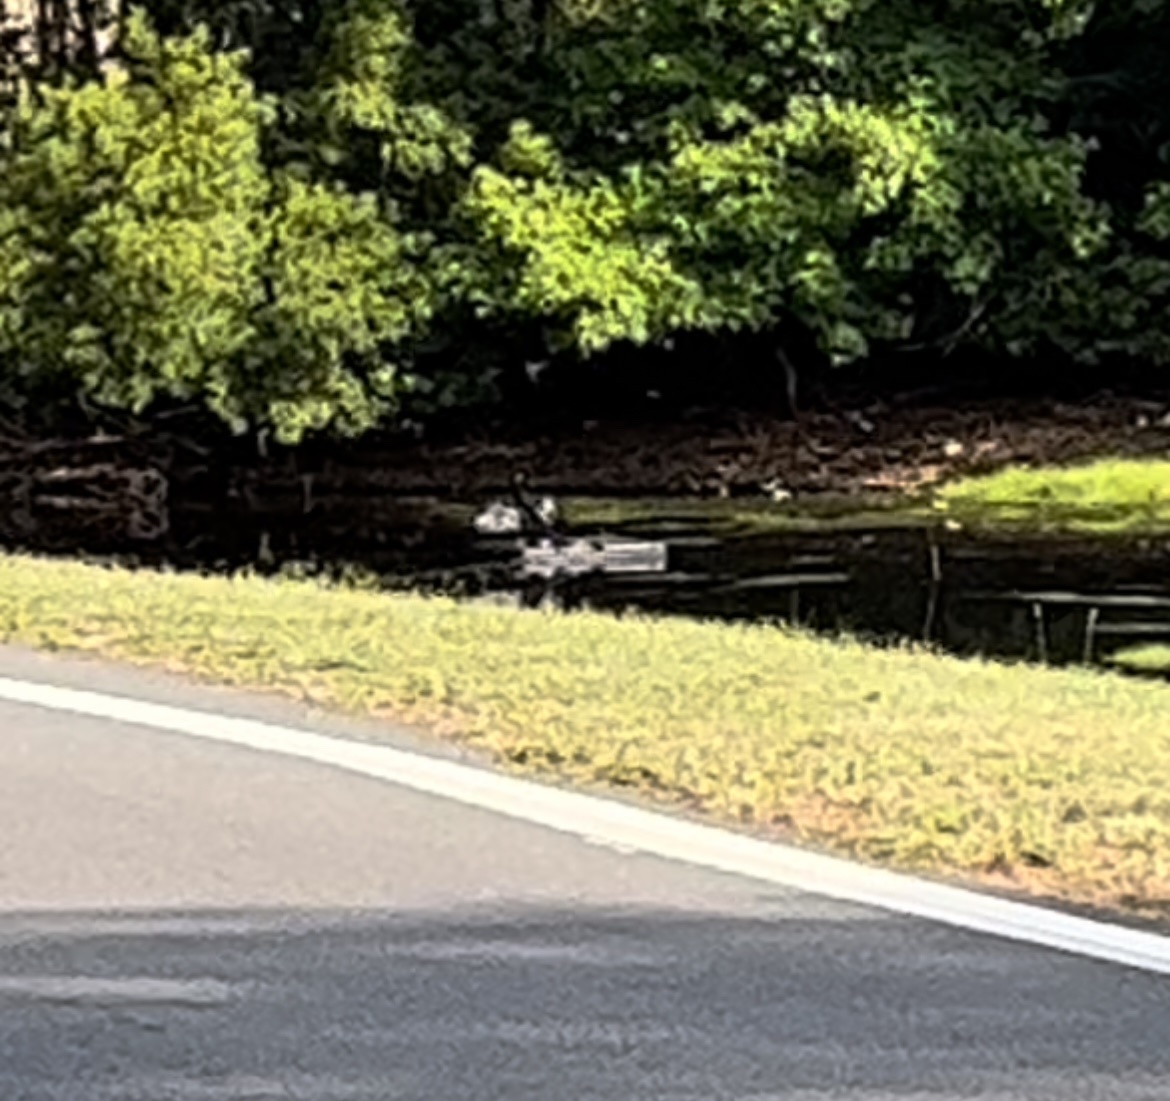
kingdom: Animalia
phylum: Chordata
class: Aves
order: Suliformes
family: Anhingidae
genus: Anhinga
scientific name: Anhinga anhinga
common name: Anhinga
